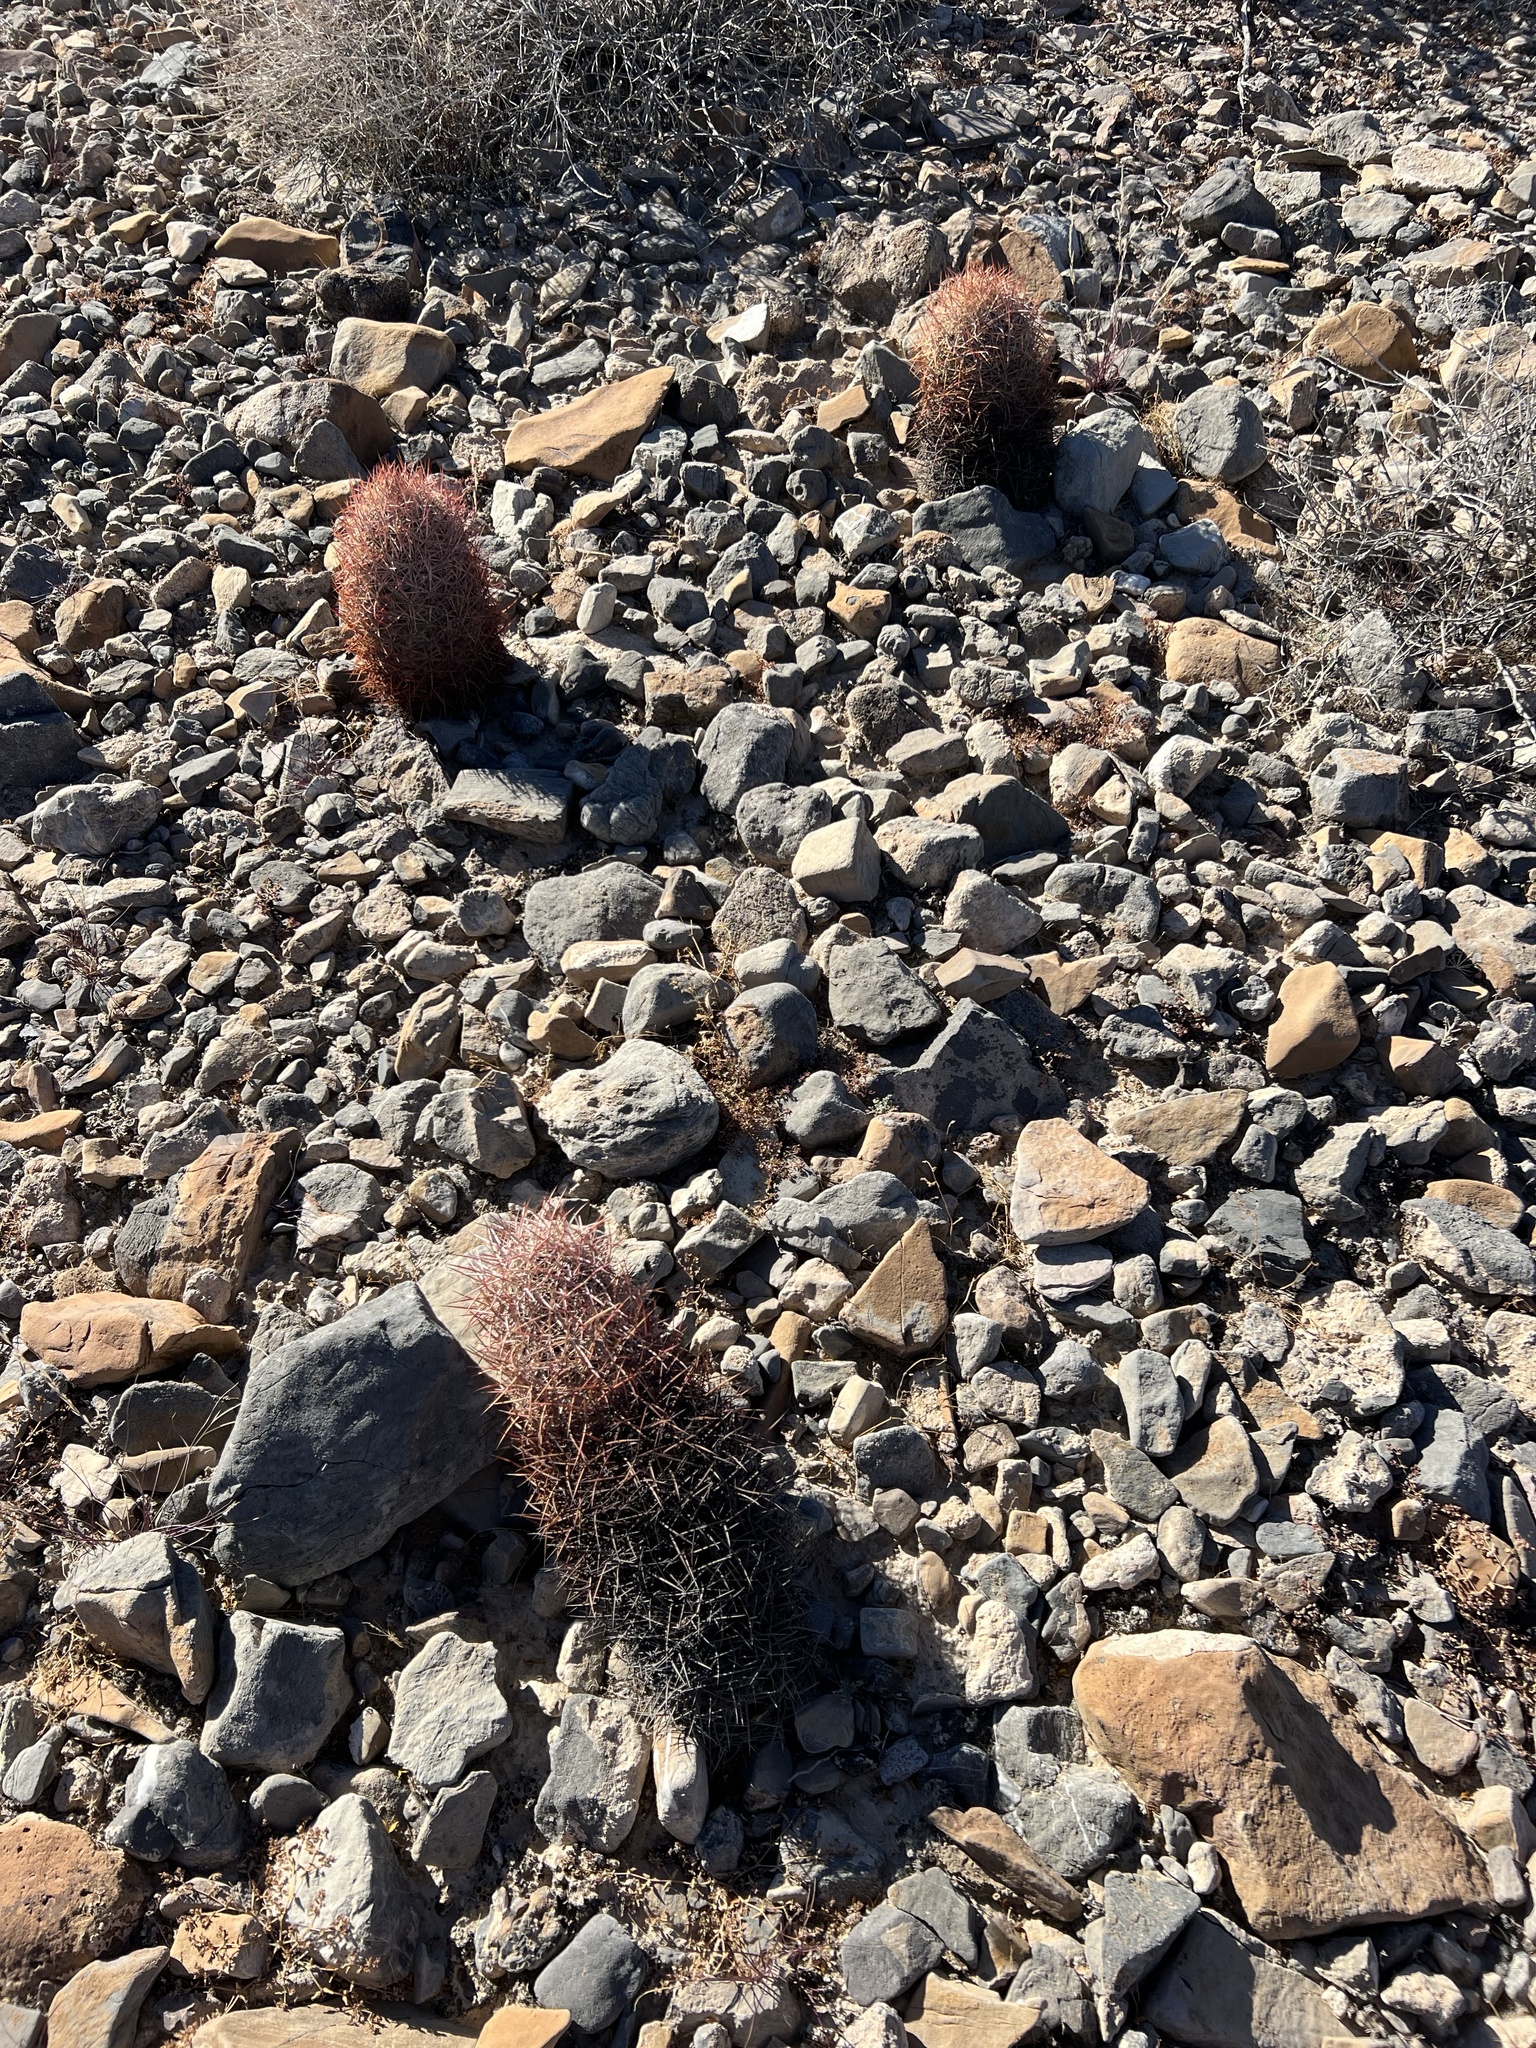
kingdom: Plantae
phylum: Tracheophyta
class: Magnoliopsida
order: Caryophyllales
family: Cactaceae
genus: Sclerocactus
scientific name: Sclerocactus johnsonii
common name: Eight-spine fishhook cactus
